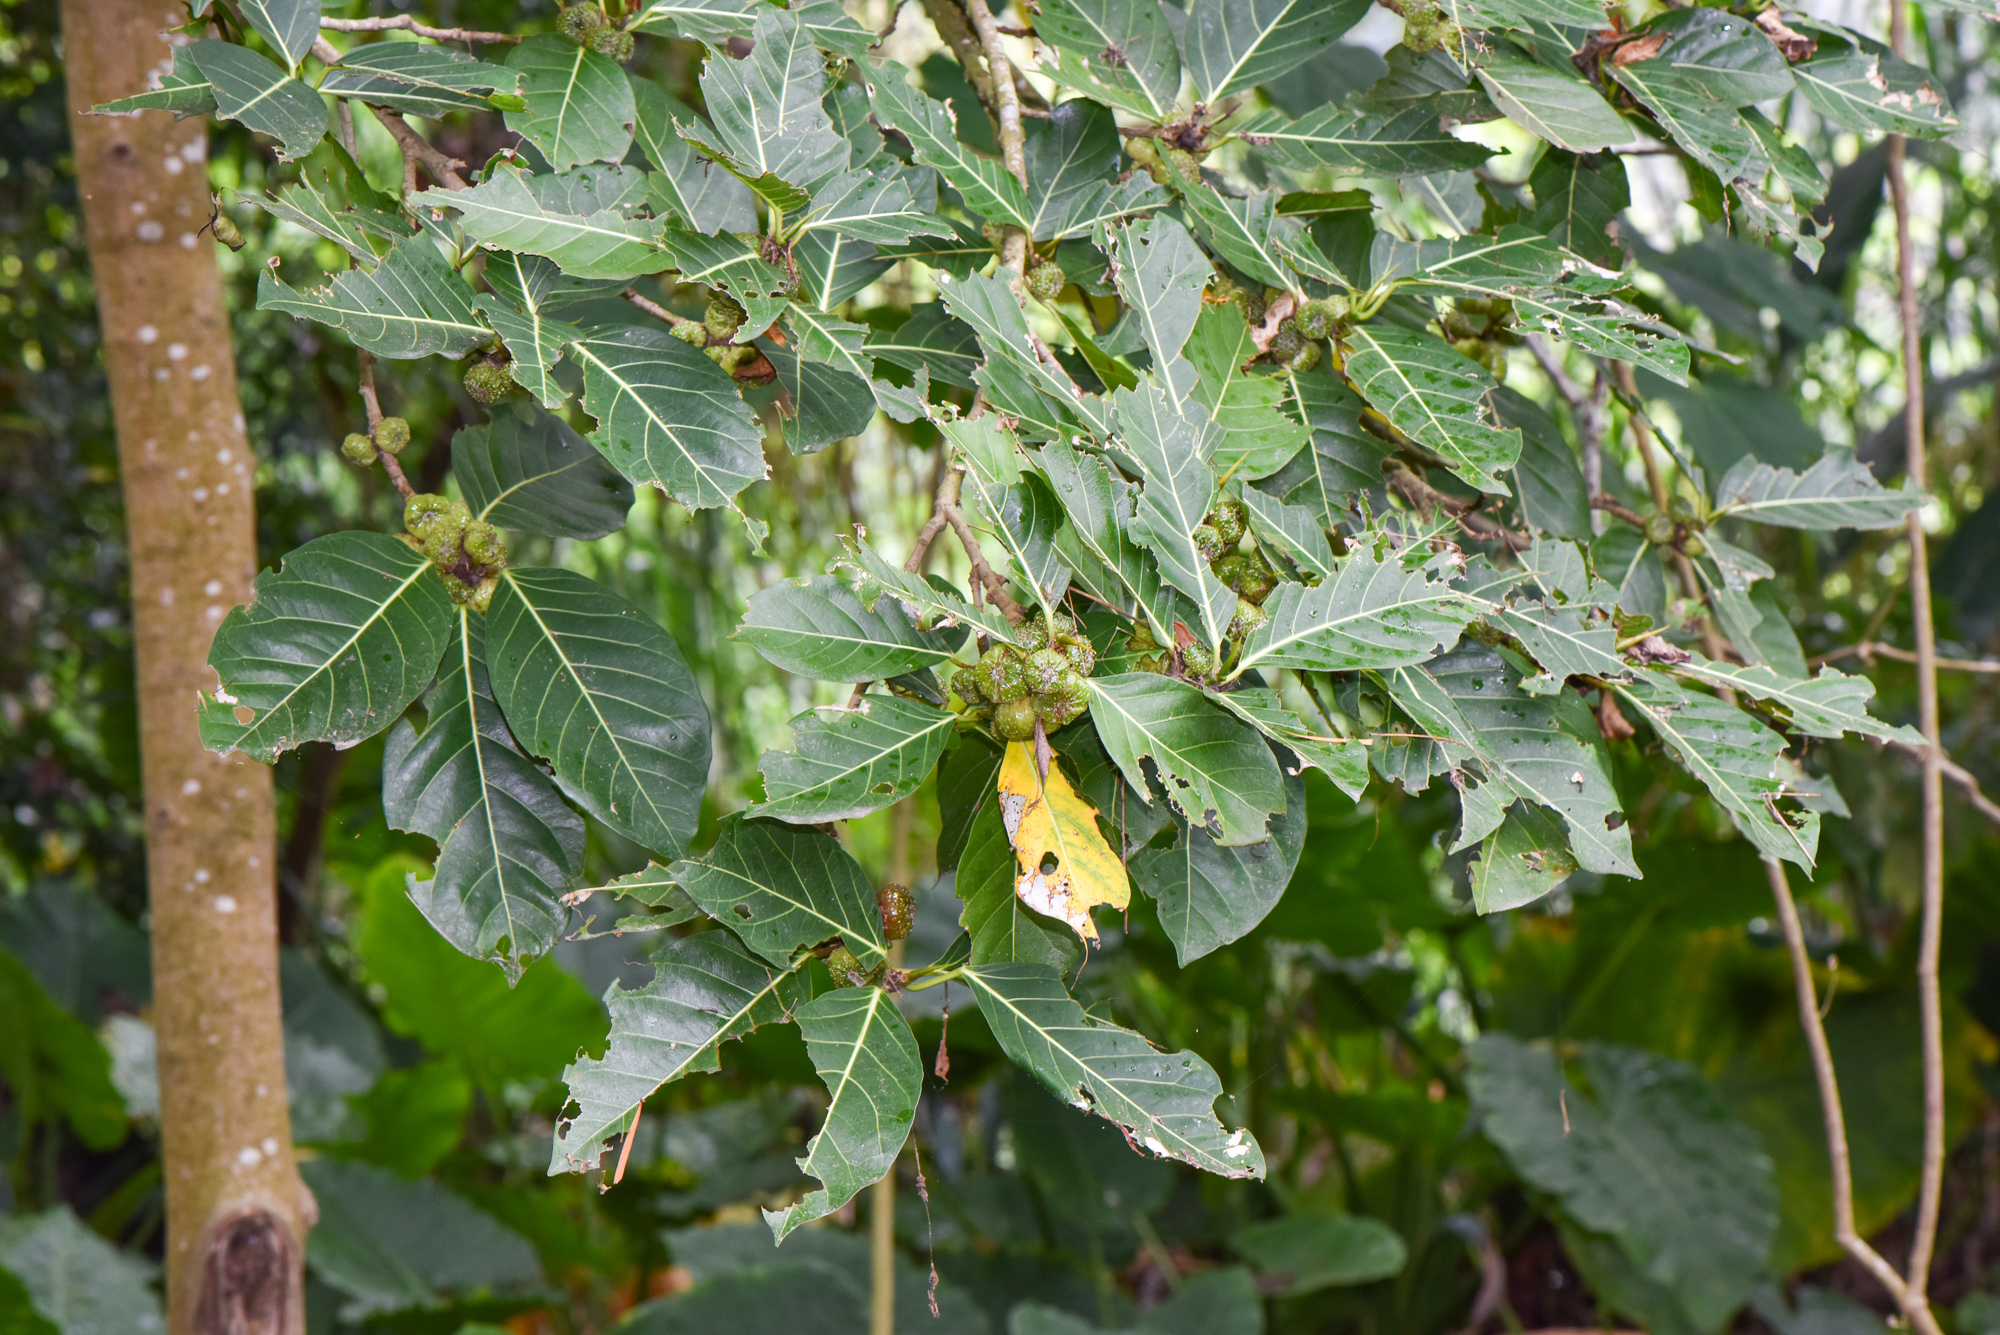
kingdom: Plantae
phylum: Tracheophyta
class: Magnoliopsida
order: Rosales
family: Moraceae
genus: Ficus
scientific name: Ficus septica
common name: Septic fig
